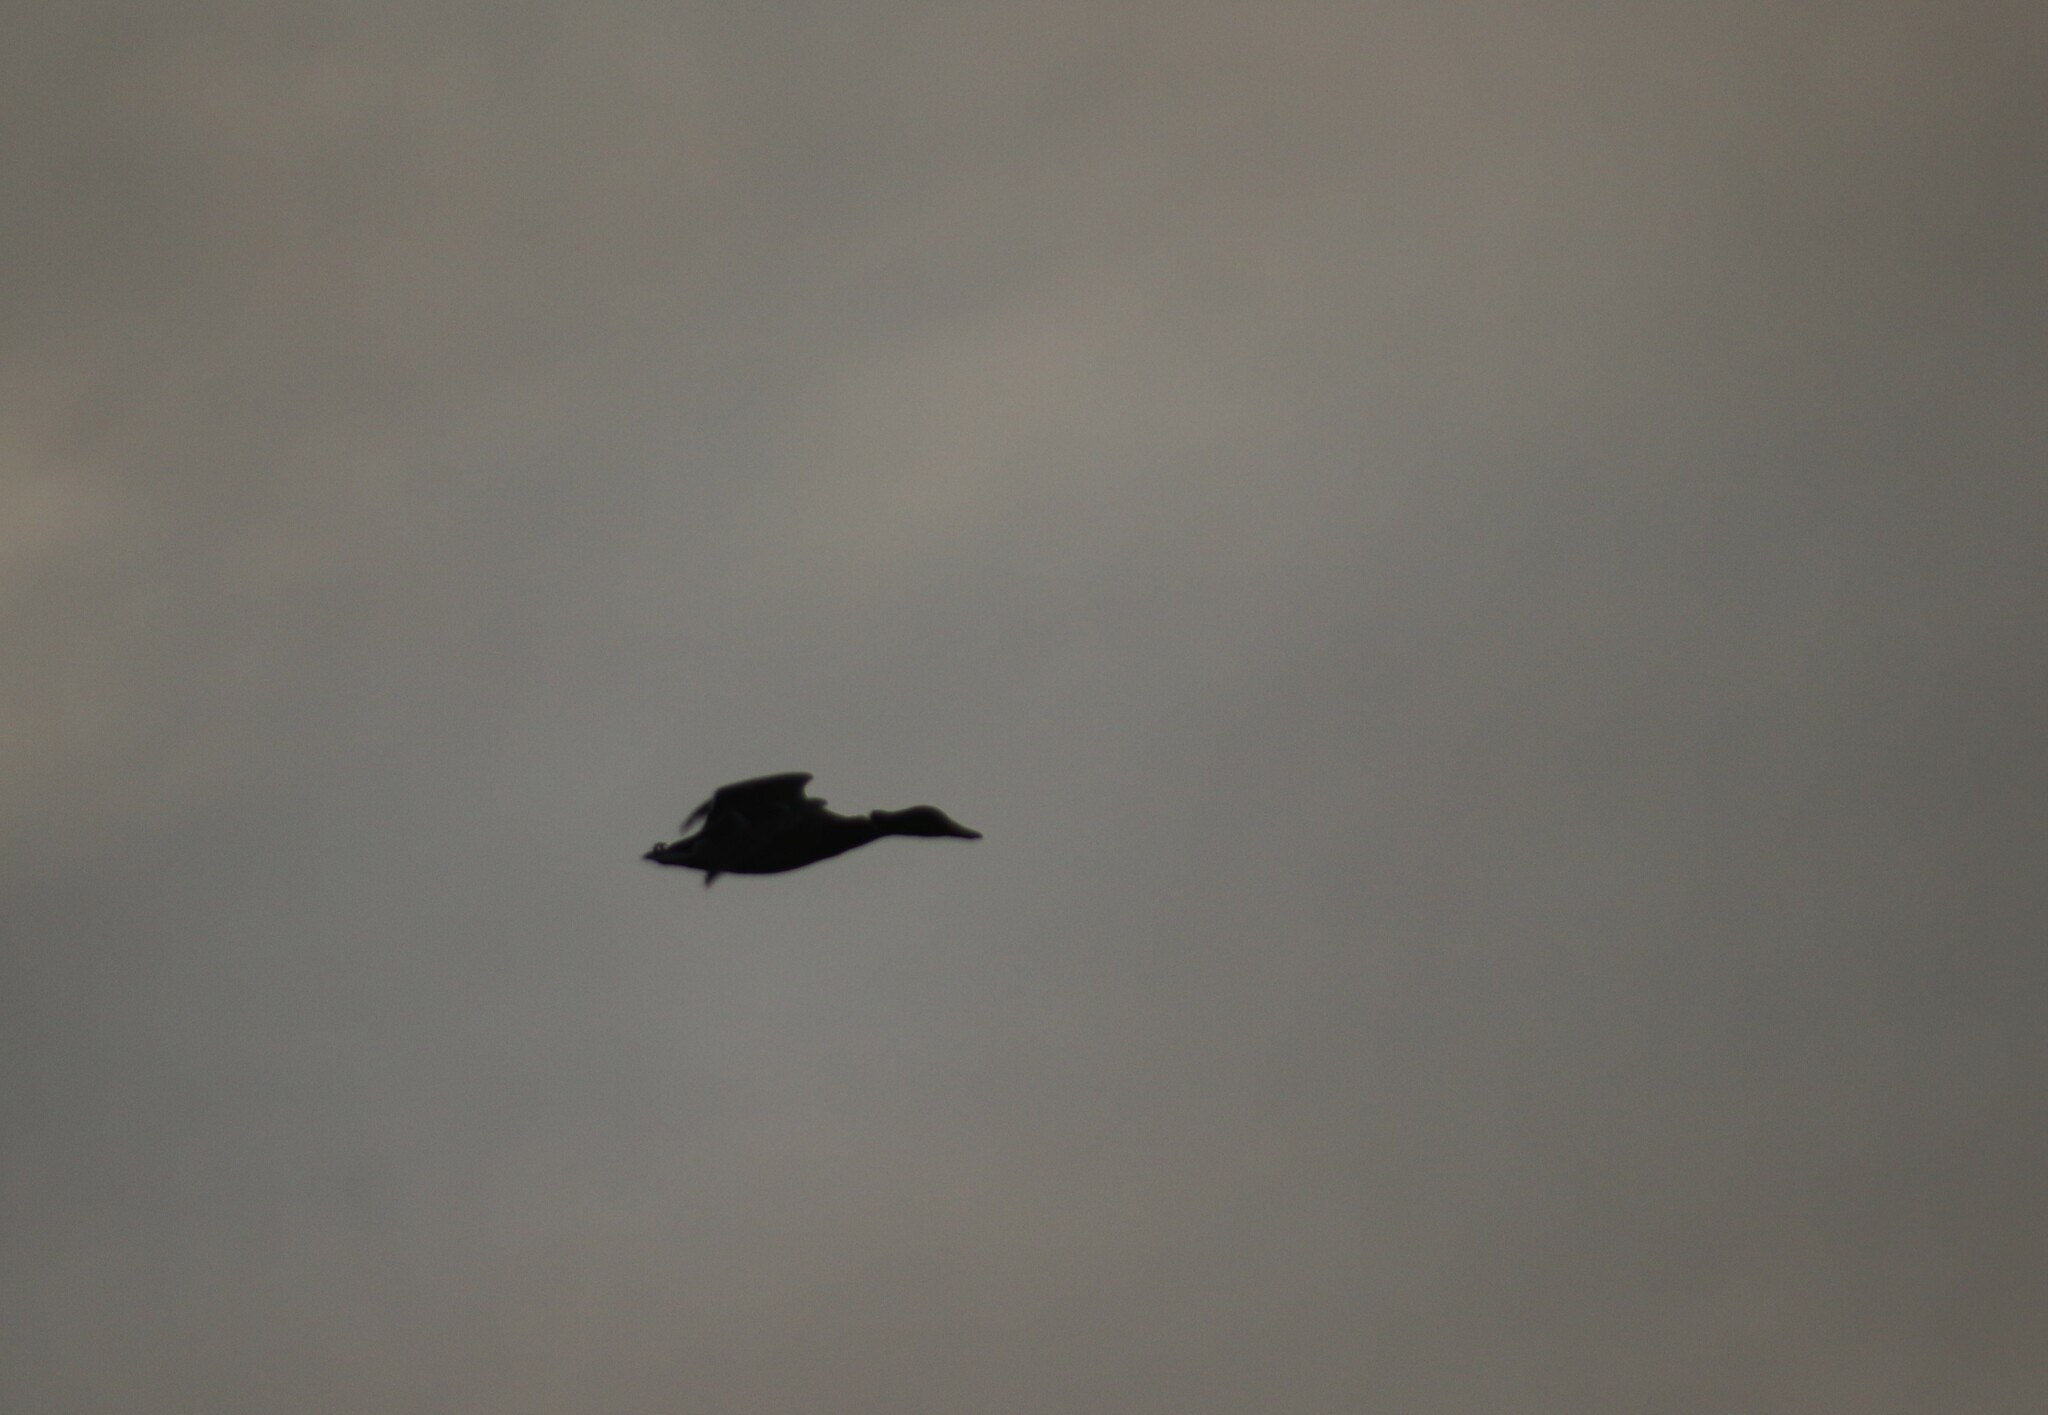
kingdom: Animalia
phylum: Chordata
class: Aves
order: Anseriformes
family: Anatidae
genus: Anas
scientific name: Anas platyrhynchos
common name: Mallard
